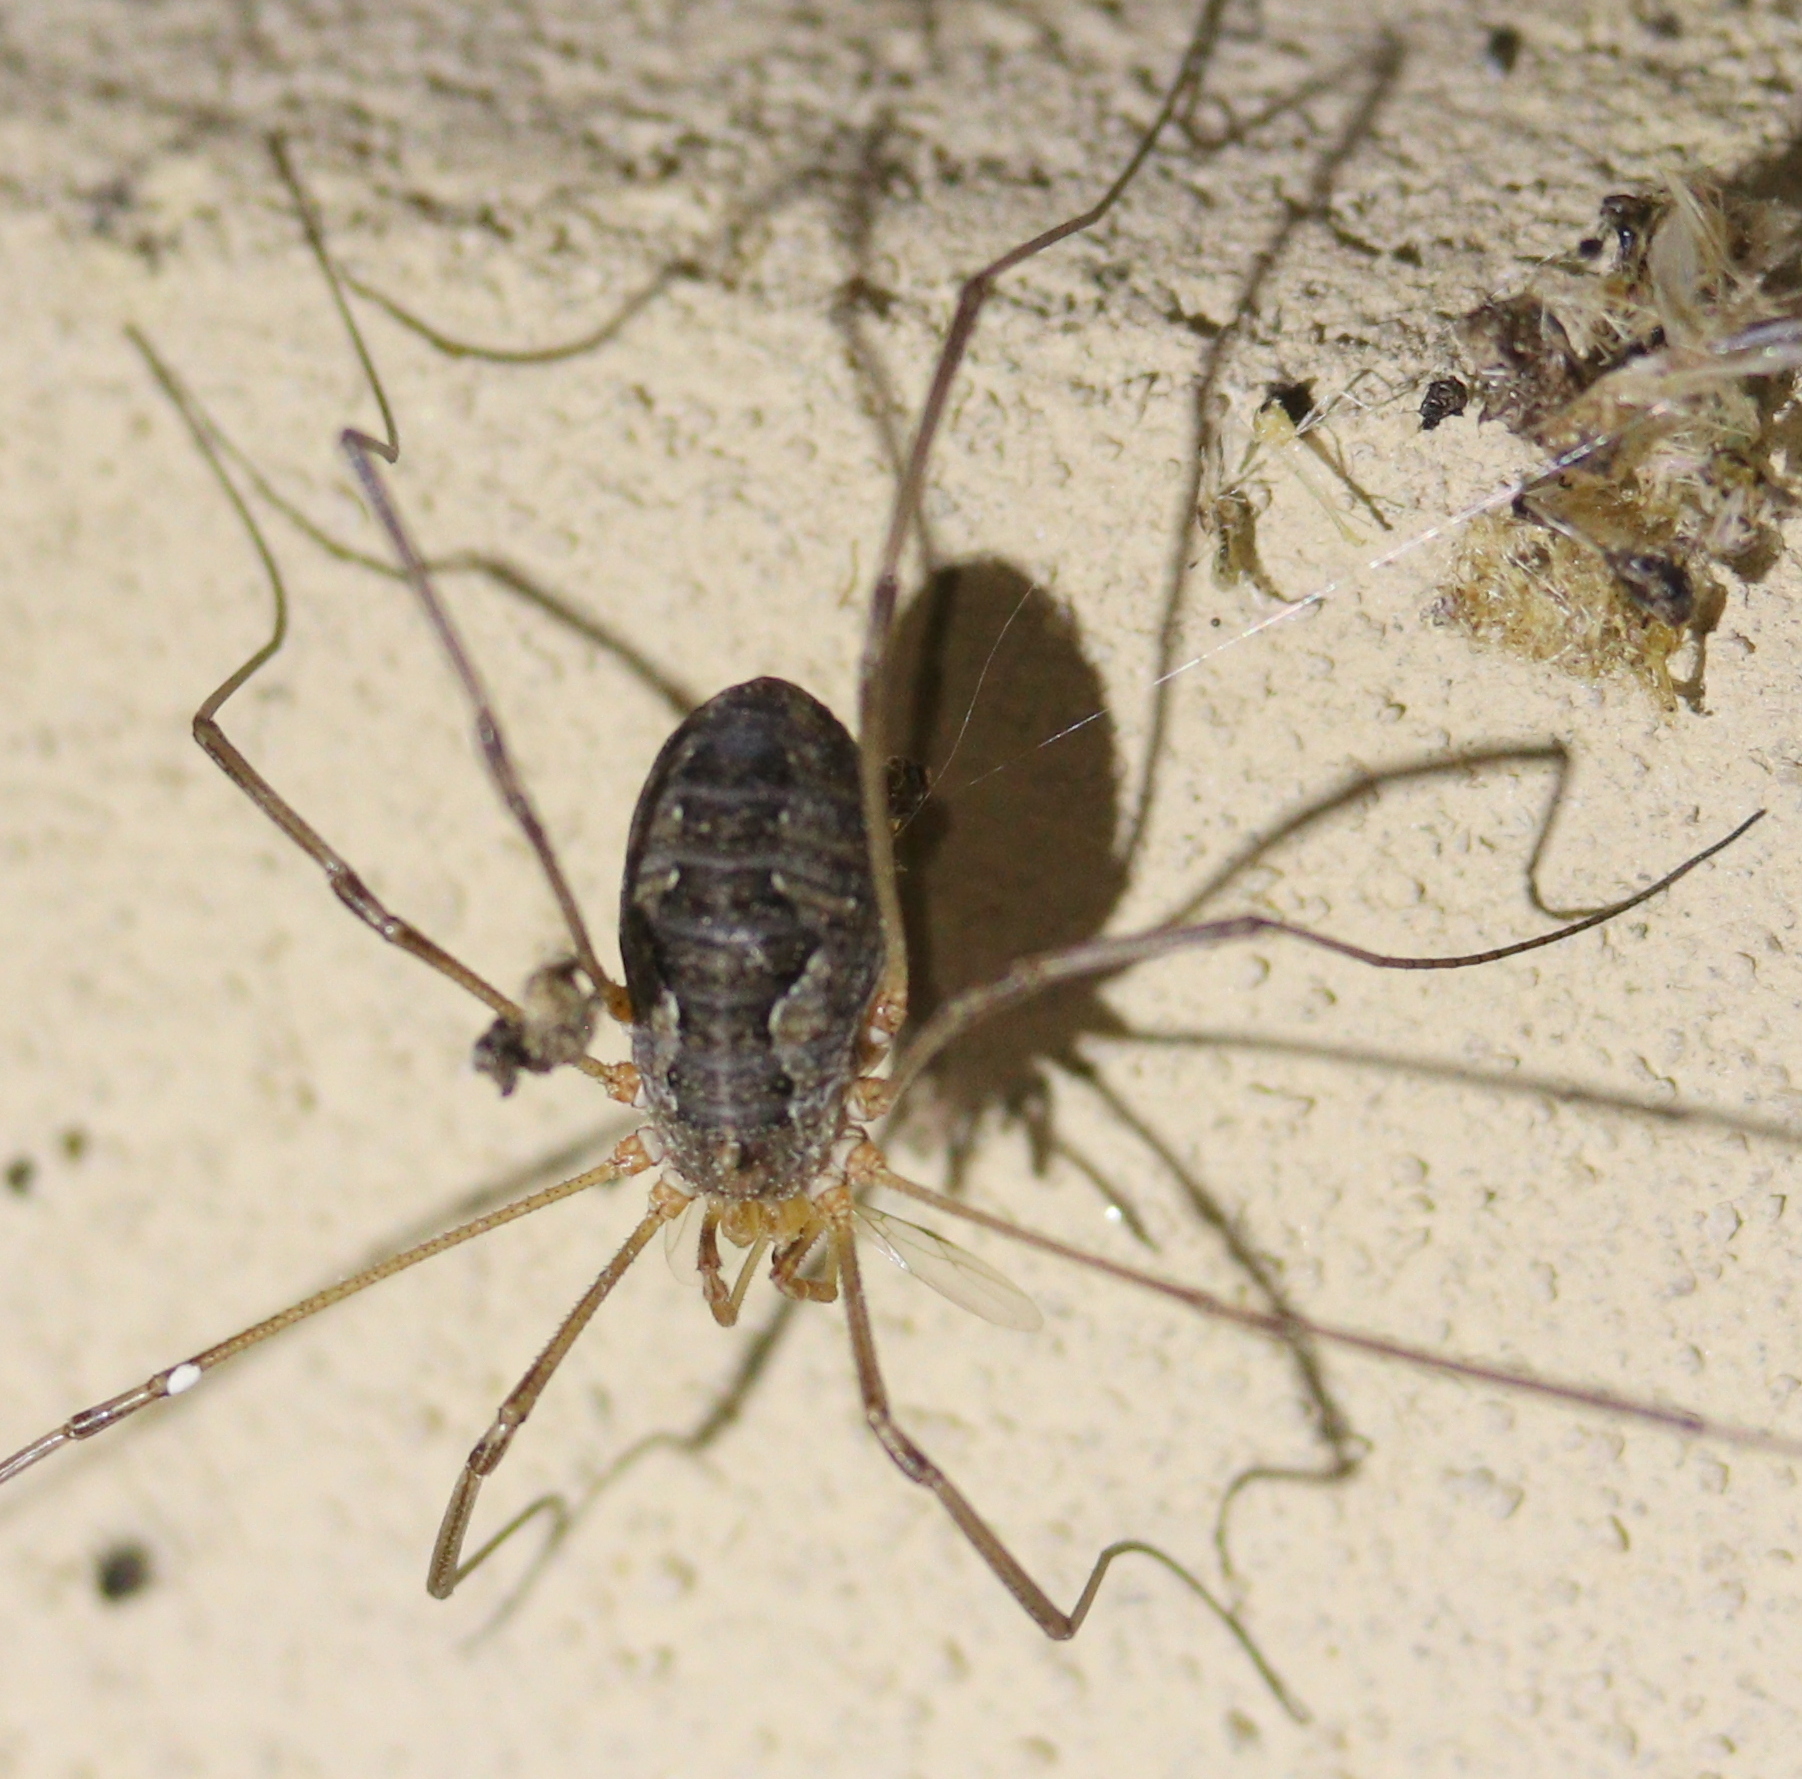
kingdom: Animalia
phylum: Arthropoda
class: Arachnida
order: Opiliones
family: Phalangiidae
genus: Phalangium
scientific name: Phalangium opilio
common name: Daddy longleg
